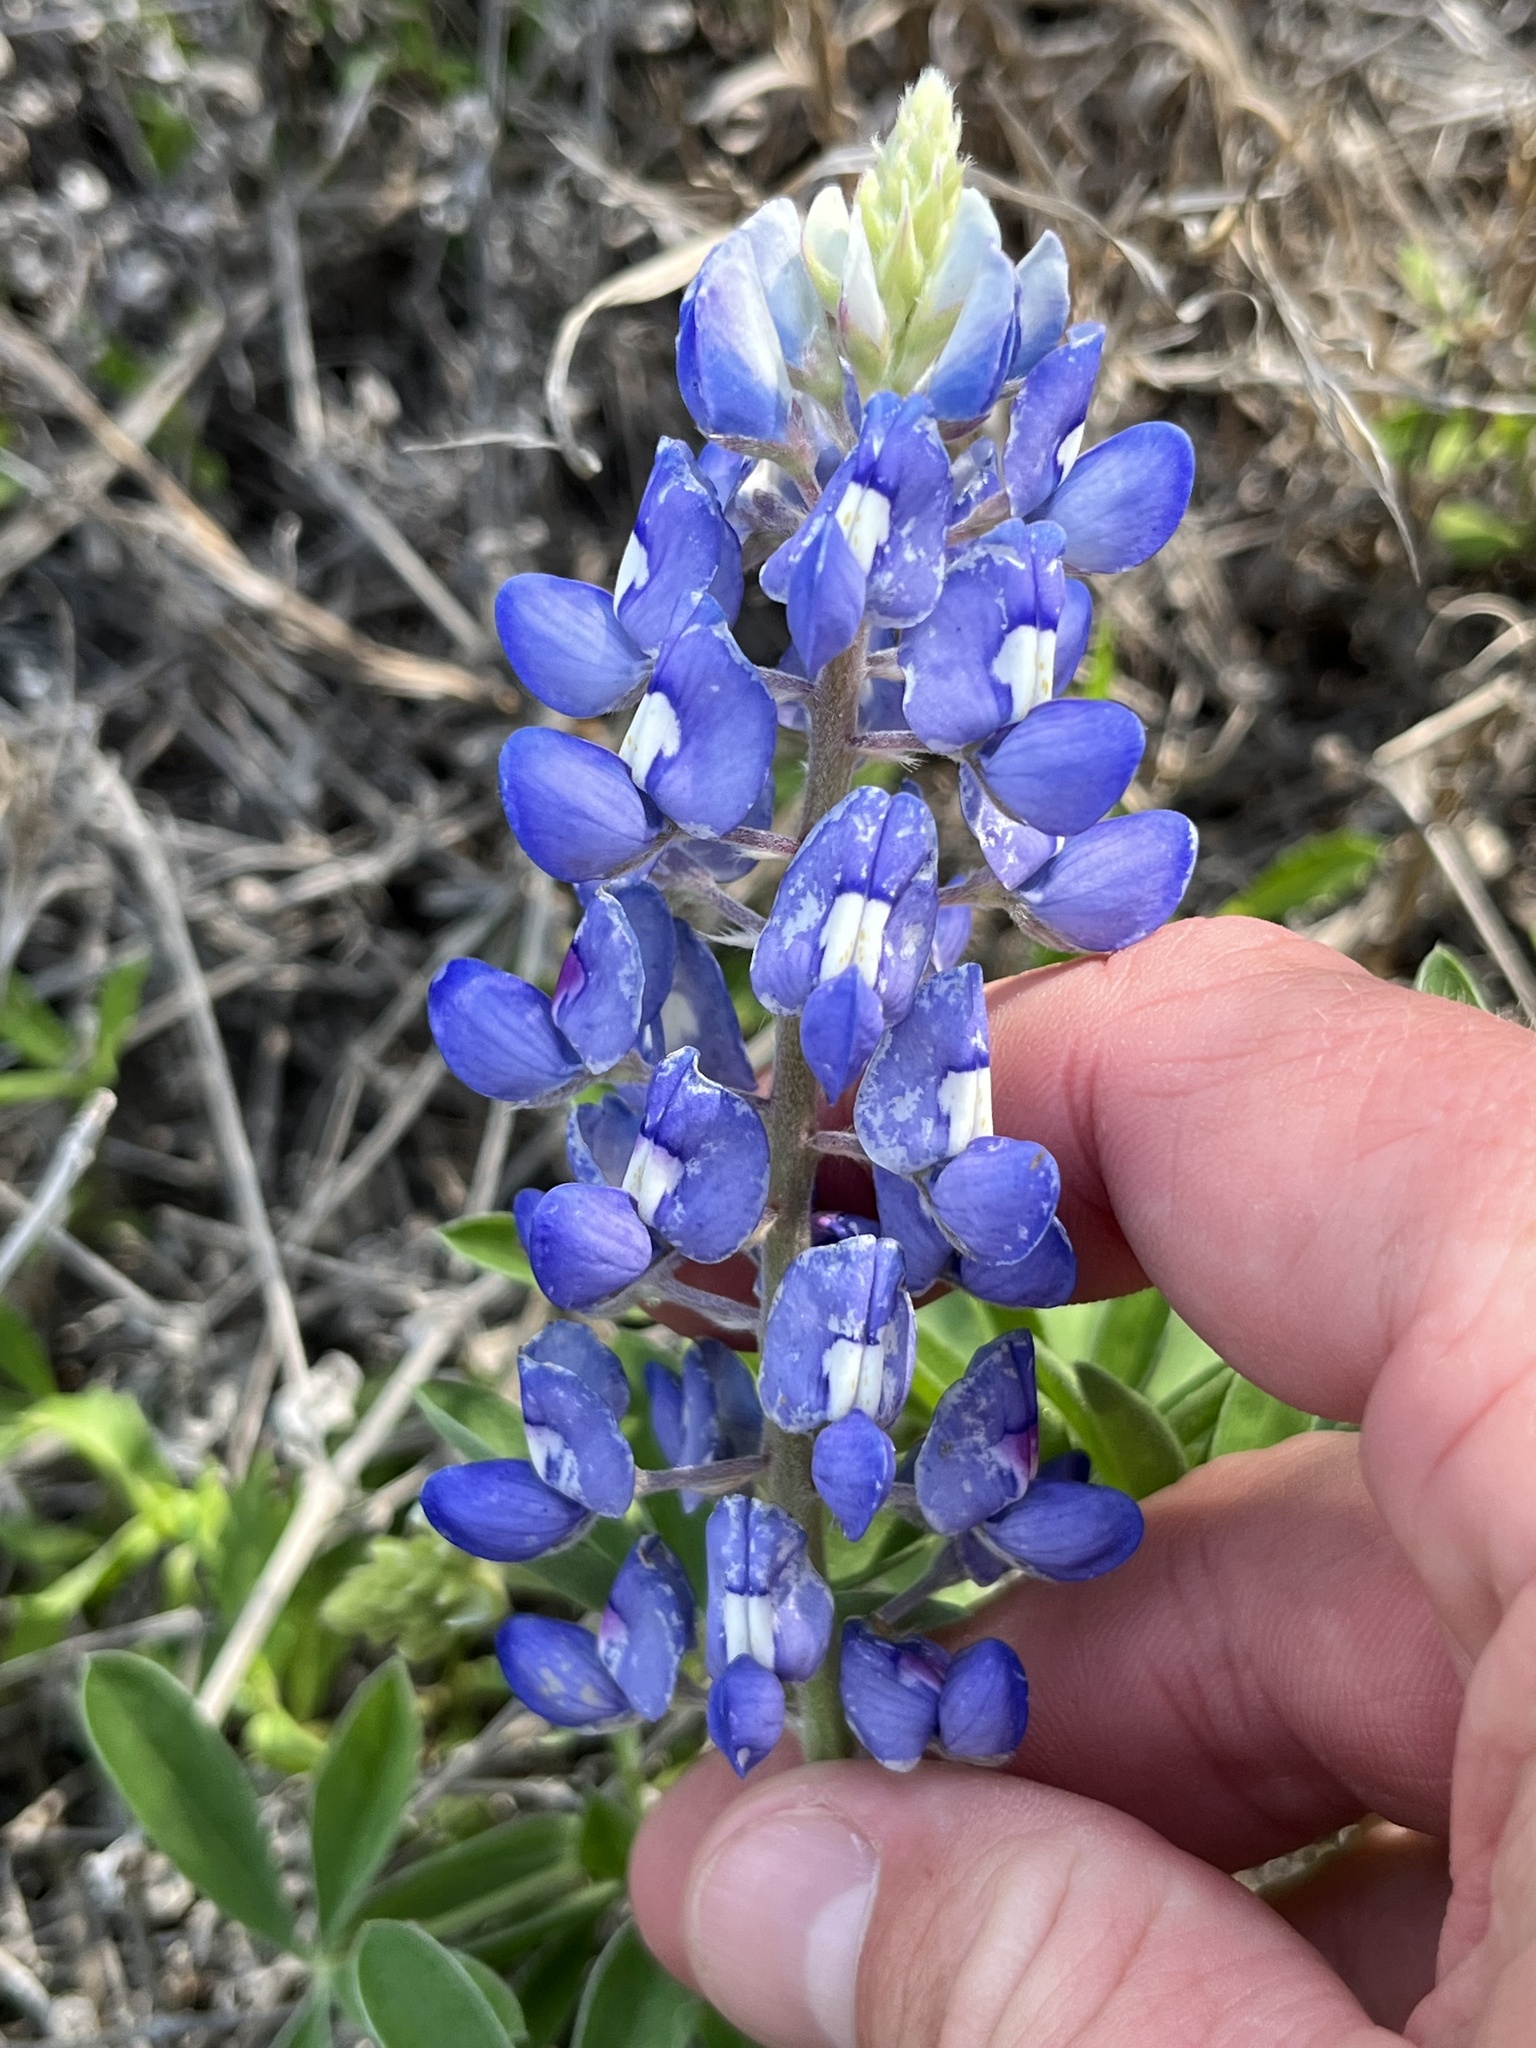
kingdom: Plantae
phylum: Tracheophyta
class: Magnoliopsida
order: Fabales
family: Fabaceae
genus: Lupinus
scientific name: Lupinus texensis
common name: Texas bluebonnet
